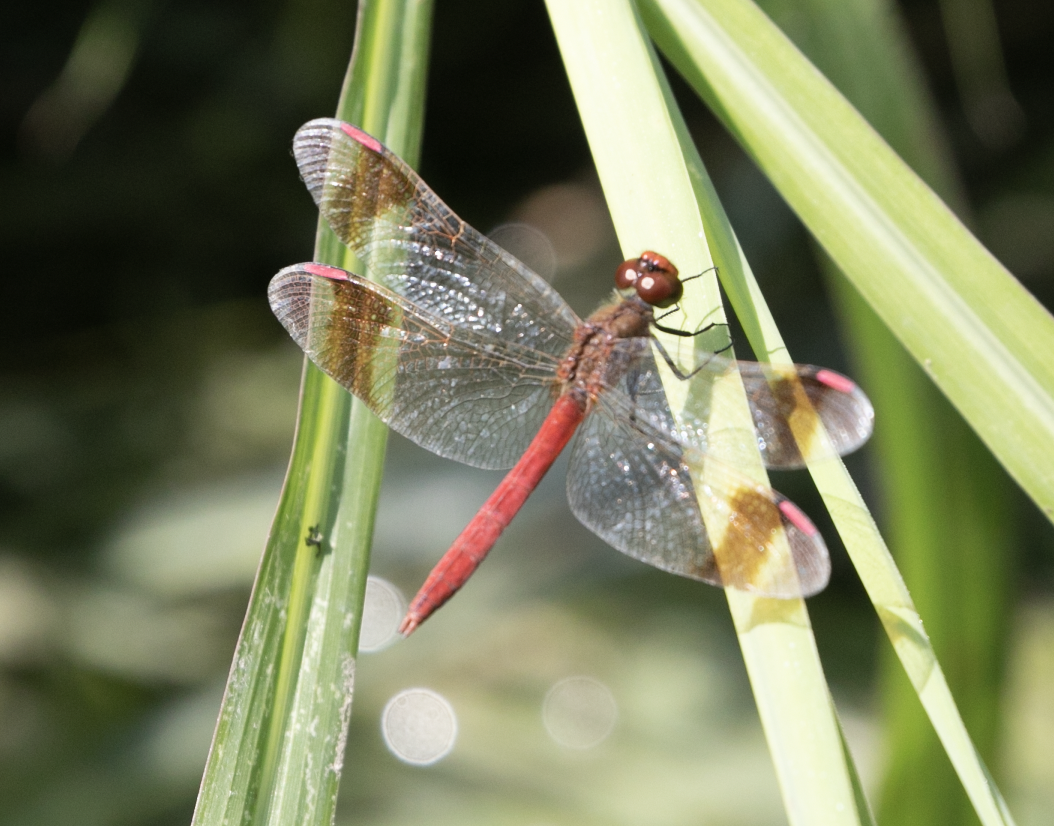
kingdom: Animalia
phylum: Arthropoda
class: Insecta
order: Odonata
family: Libellulidae
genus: Sympetrum
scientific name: Sympetrum pedemontanum
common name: Banded darter
